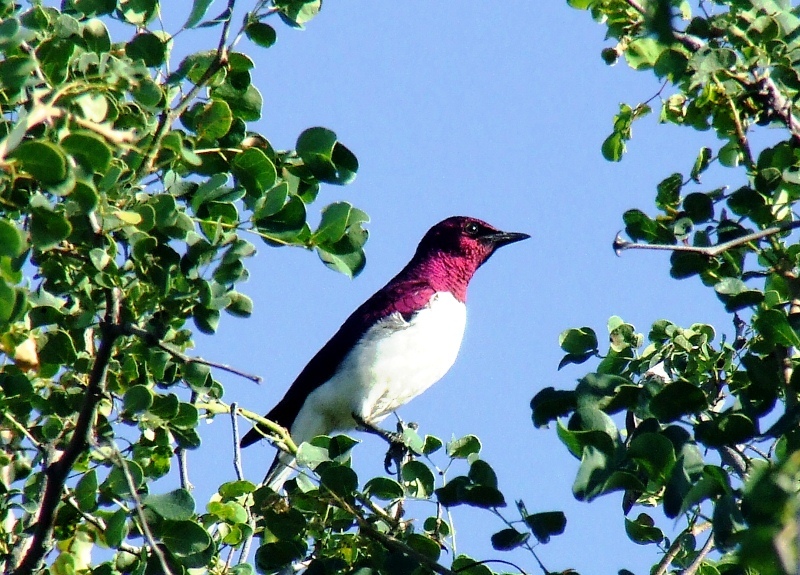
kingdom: Animalia
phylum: Chordata
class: Aves
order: Passeriformes
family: Sturnidae
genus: Cinnyricinclus
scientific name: Cinnyricinclus leucogaster
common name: Violet-backed starling
